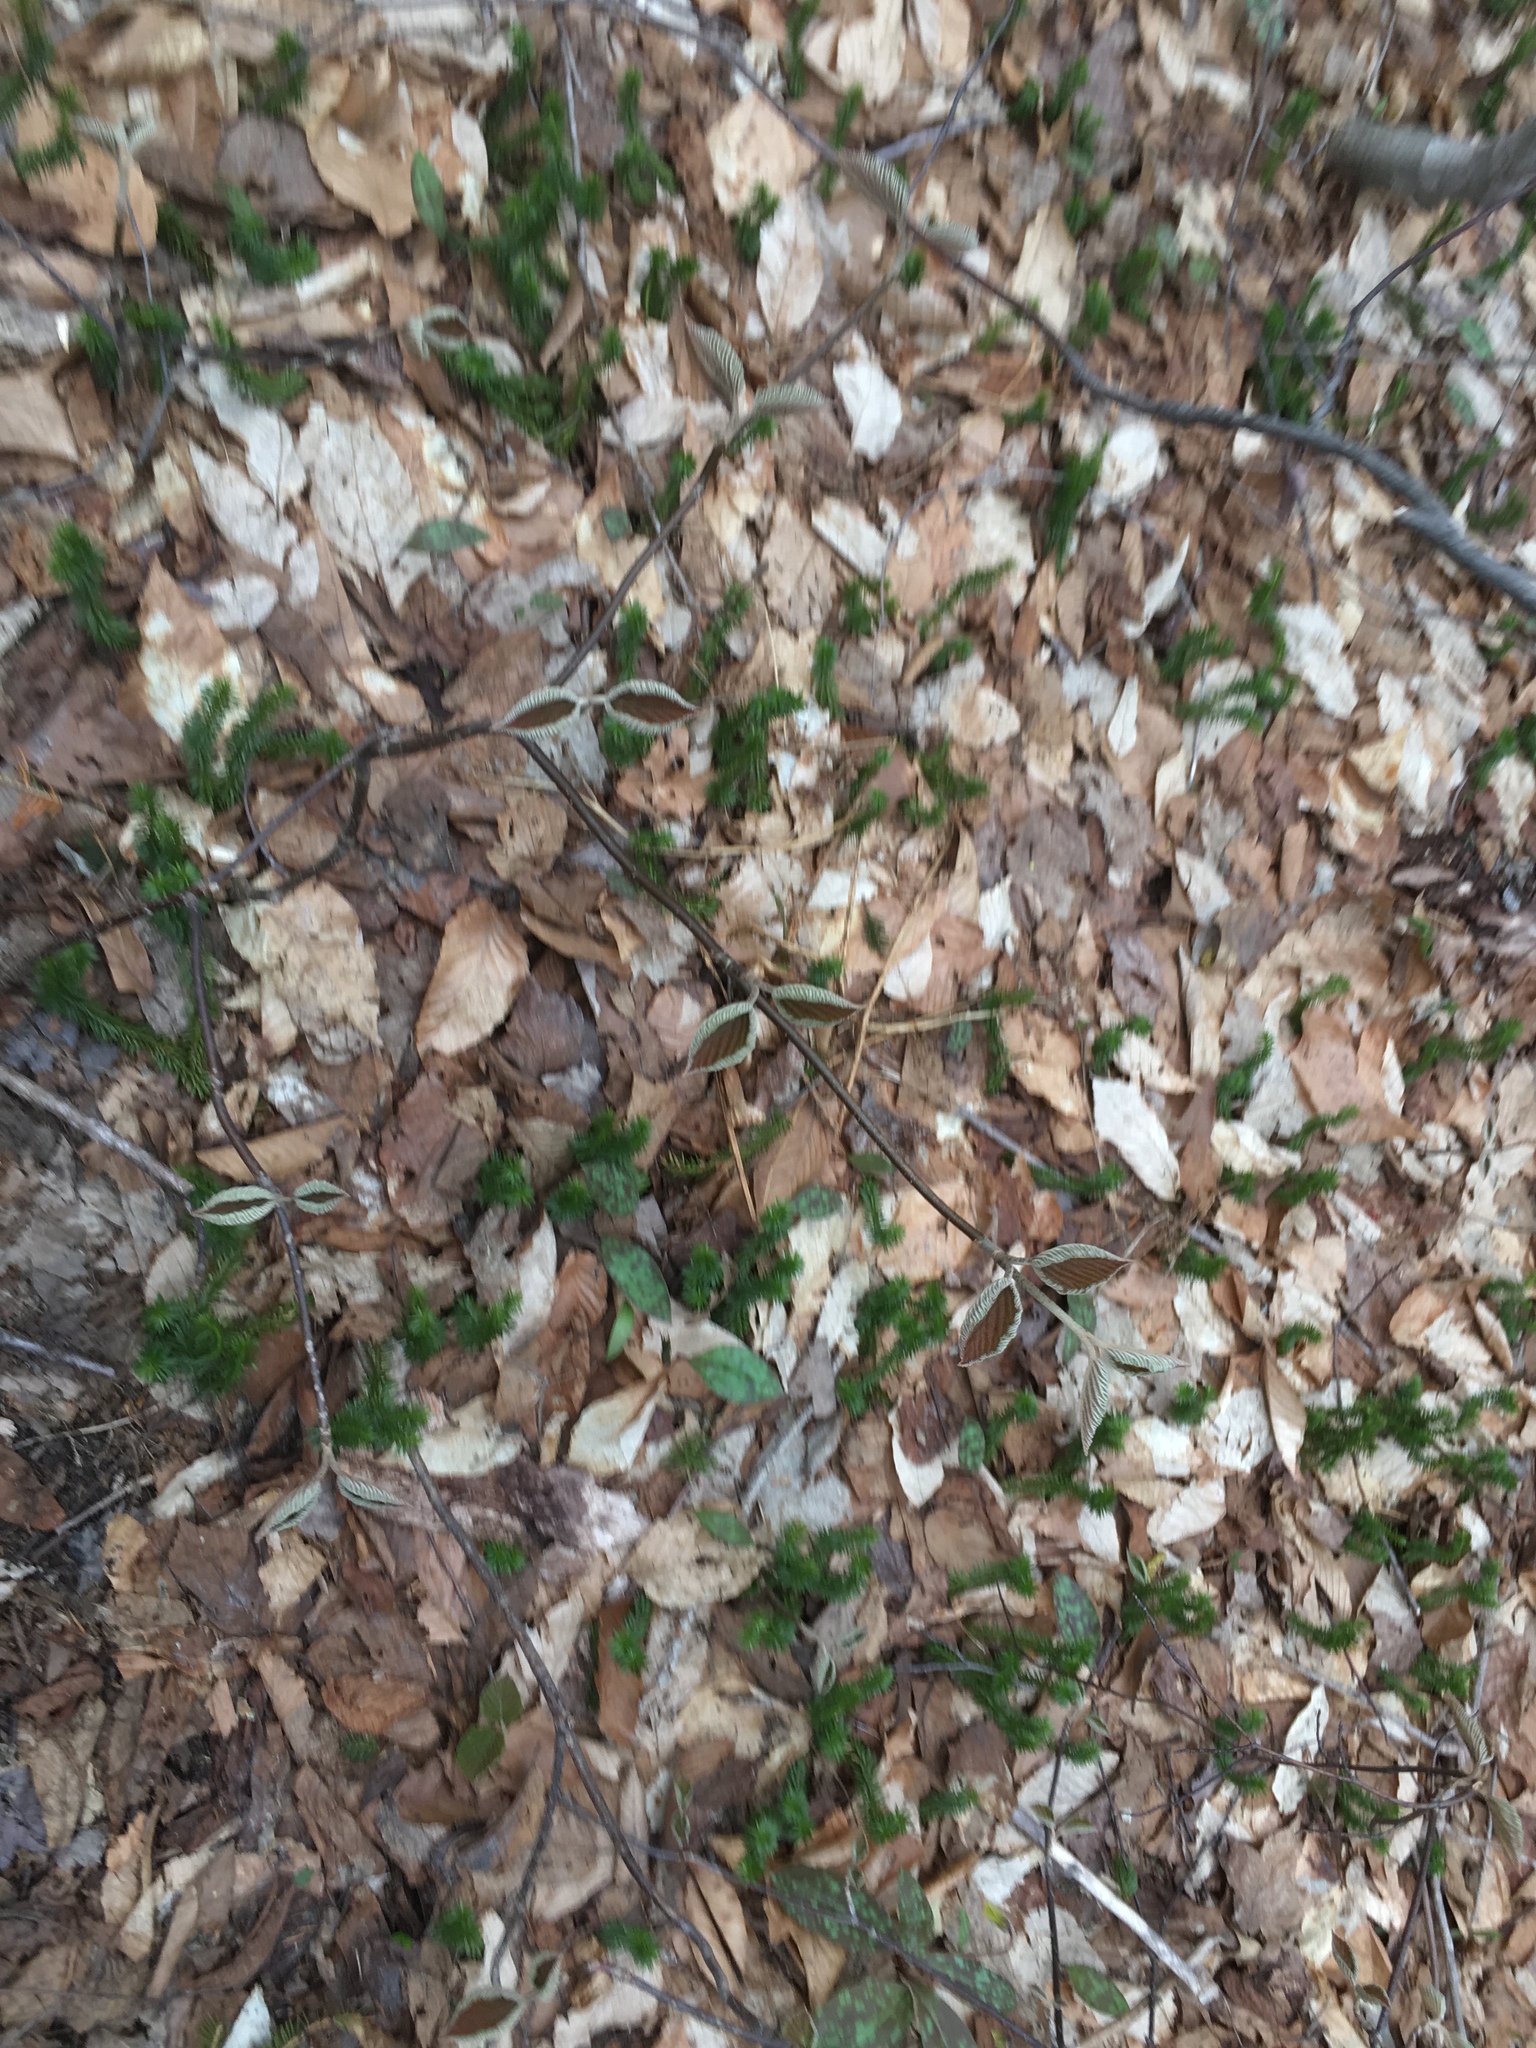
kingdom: Plantae
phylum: Tracheophyta
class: Magnoliopsida
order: Dipsacales
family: Viburnaceae
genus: Viburnum
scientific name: Viburnum lantanoides
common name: Hobblebush
